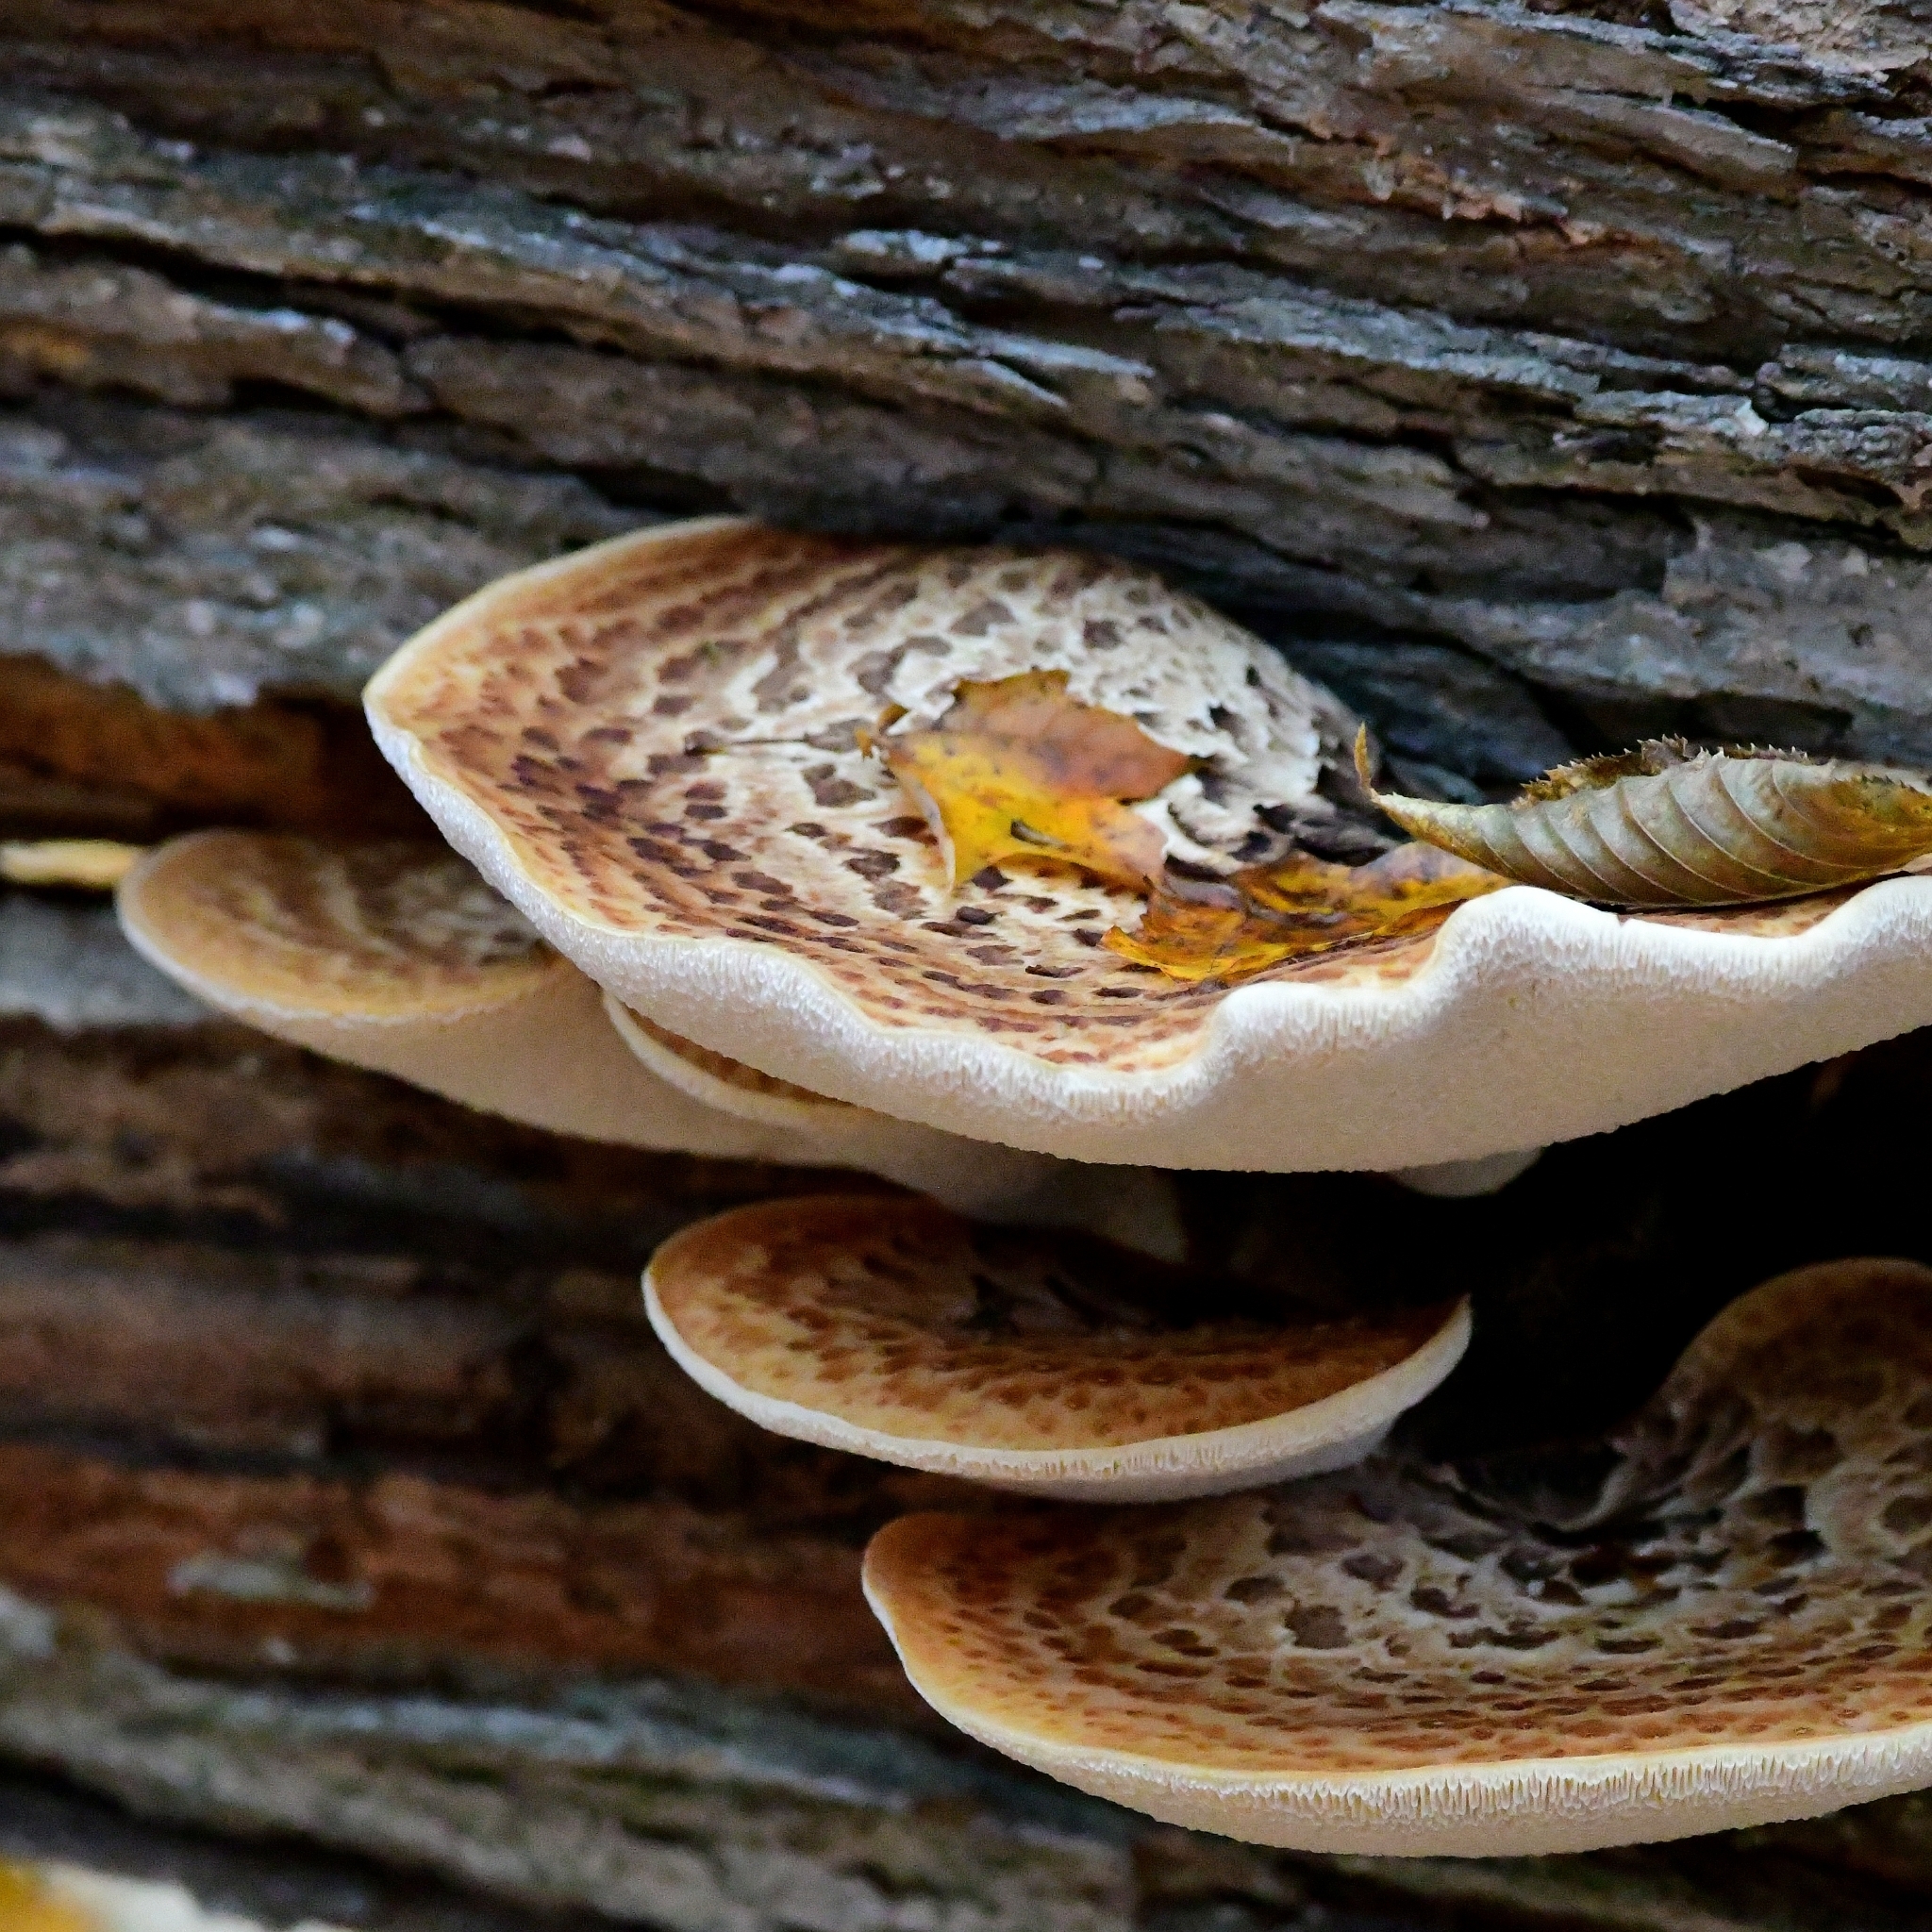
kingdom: Fungi
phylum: Basidiomycota
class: Agaricomycetes
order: Polyporales
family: Polyporaceae
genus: Cerioporus
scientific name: Cerioporus squamosus
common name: Dryad's saddle
